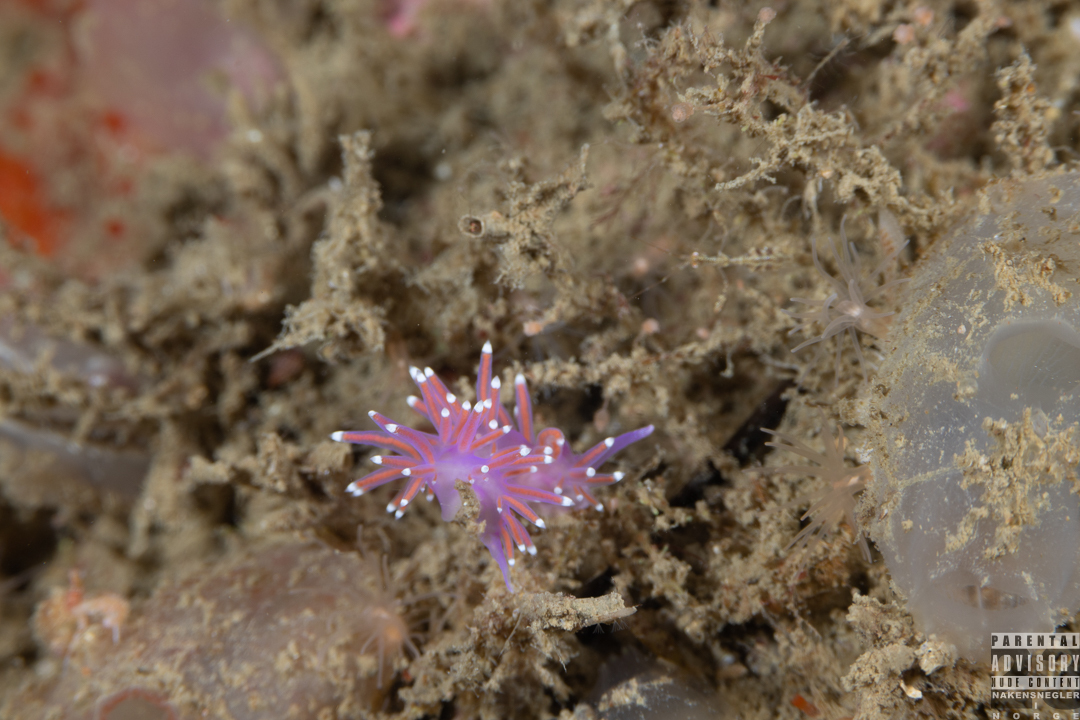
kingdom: Animalia
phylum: Mollusca
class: Gastropoda
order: Nudibranchia
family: Flabellinidae
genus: Edmundsella
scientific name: Edmundsella pedata
